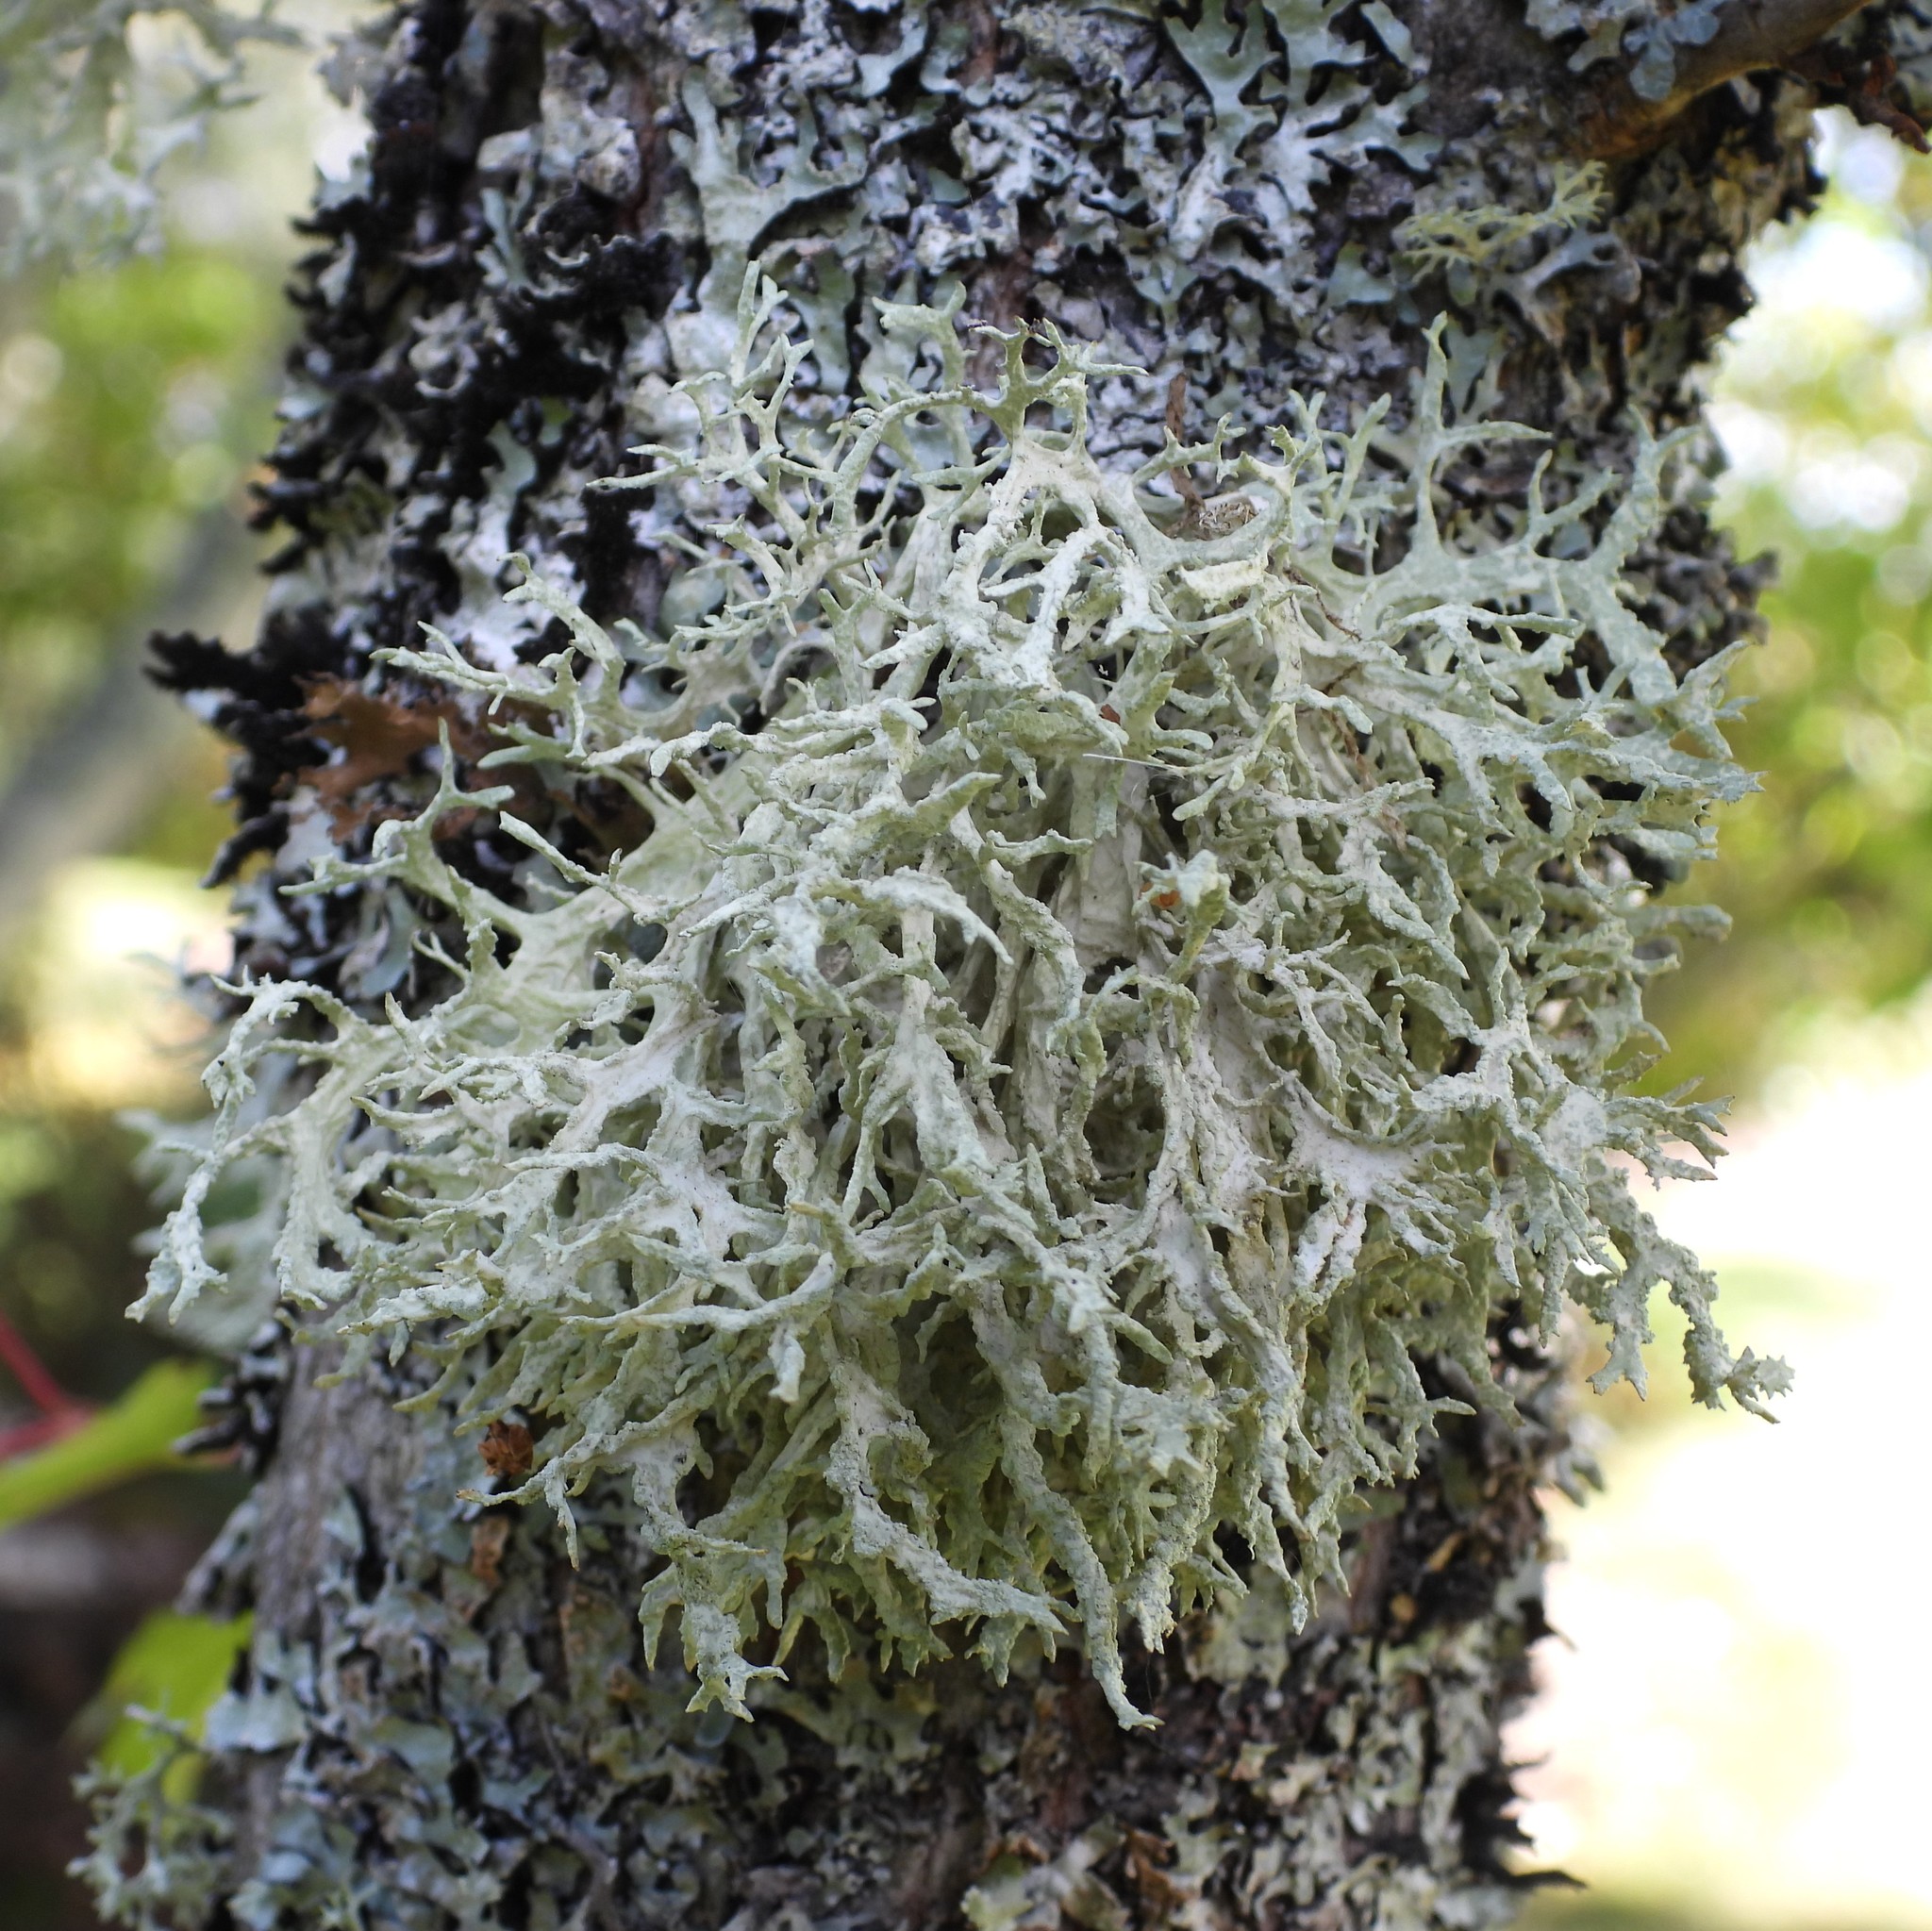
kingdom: Fungi
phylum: Ascomycota
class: Lecanoromycetes
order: Lecanorales
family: Parmeliaceae
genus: Evernia
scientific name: Evernia prunastri
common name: Oak moss
